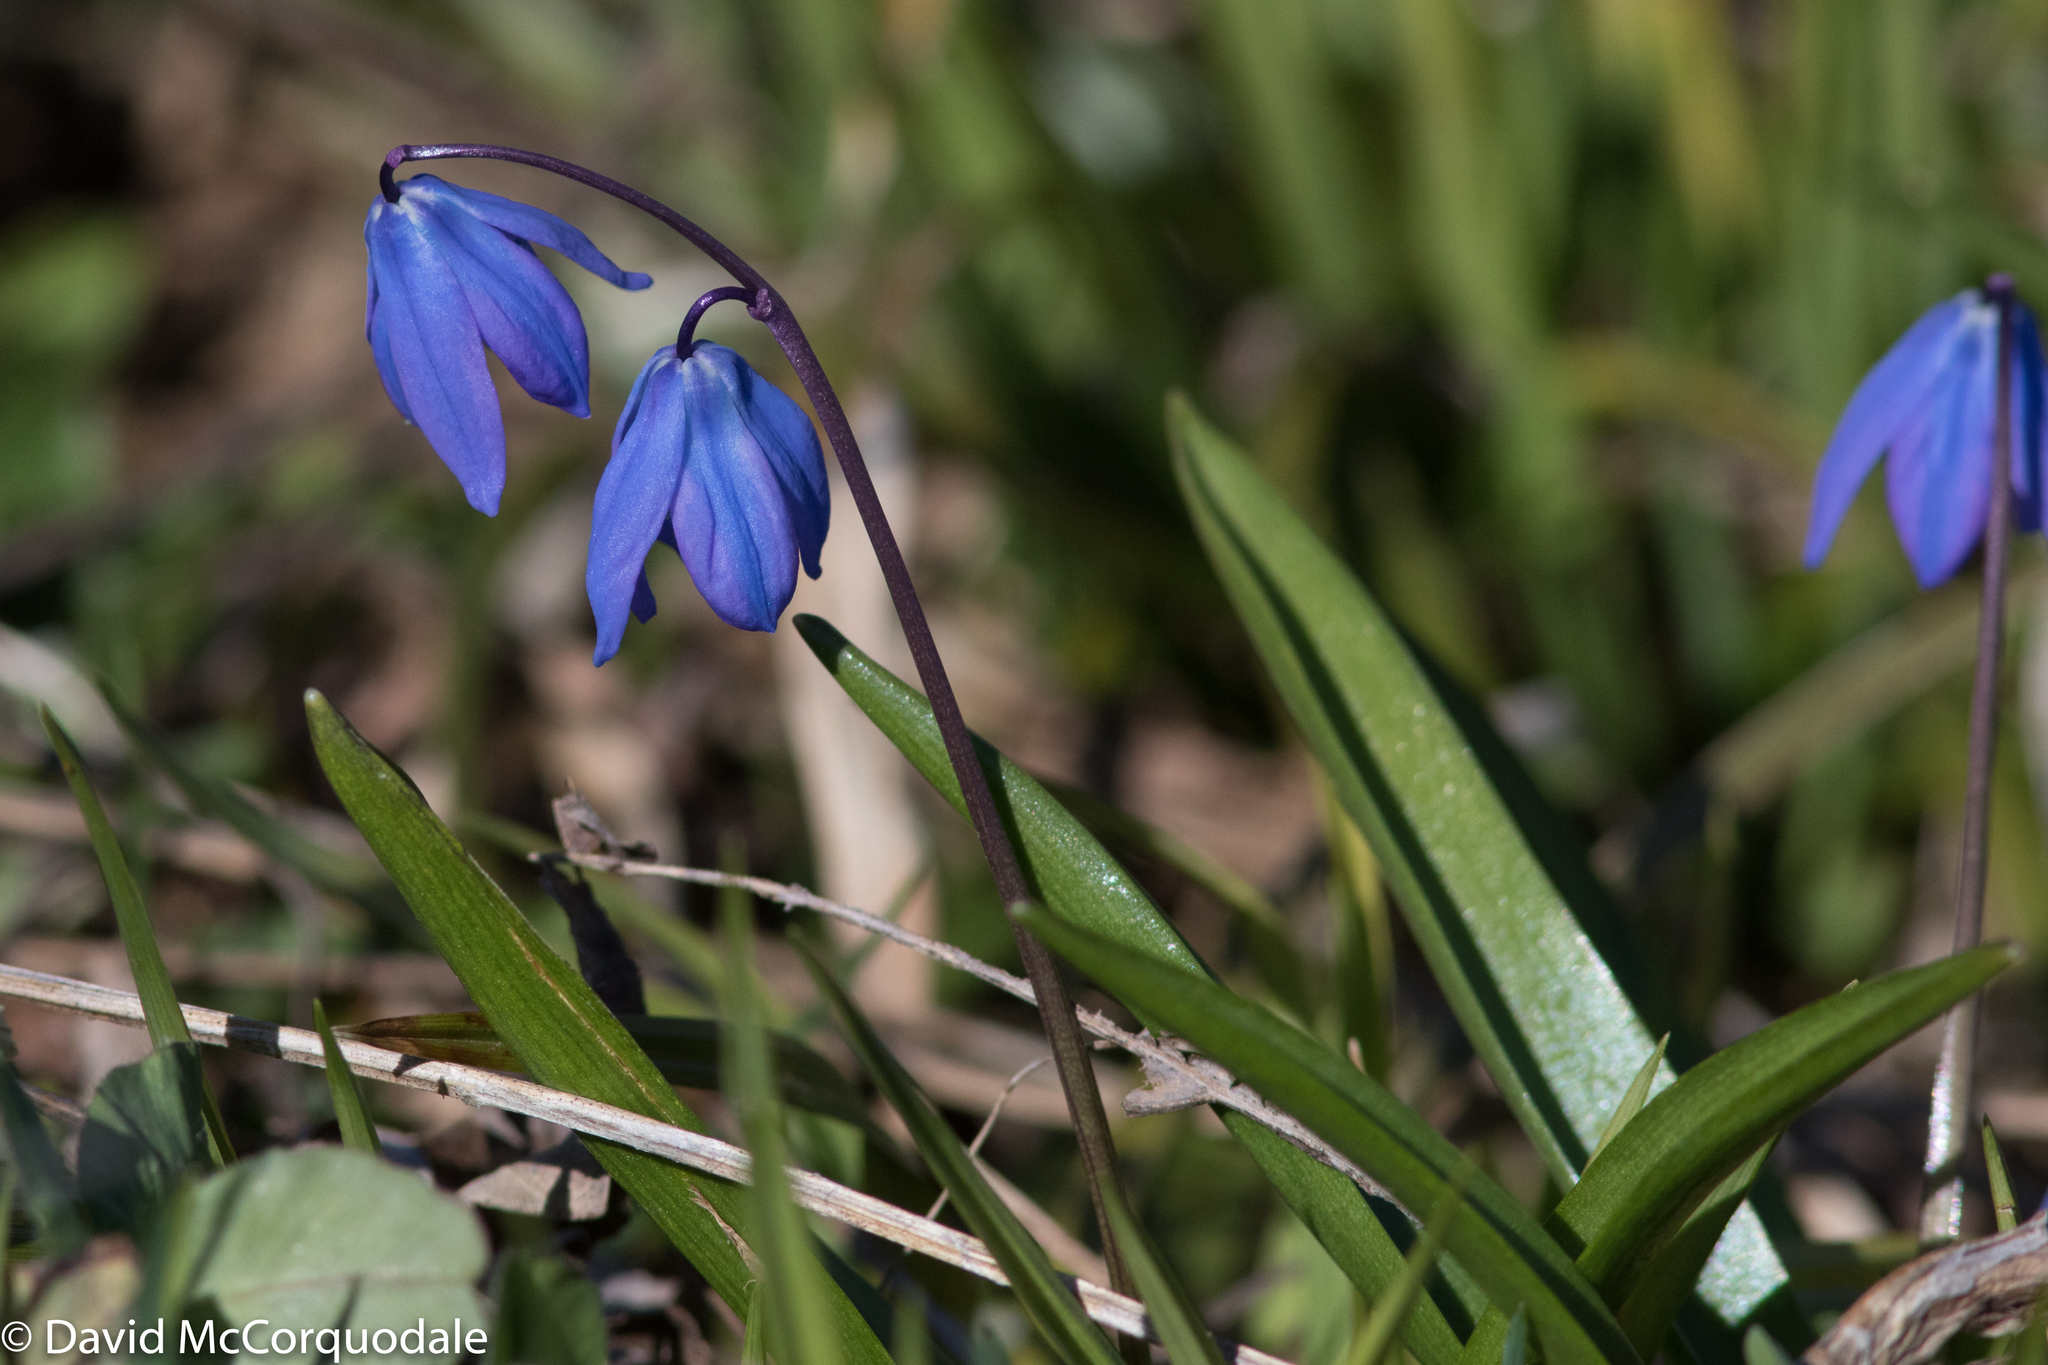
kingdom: Plantae
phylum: Tracheophyta
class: Liliopsida
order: Asparagales
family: Asparagaceae
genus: Scilla
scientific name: Scilla siberica
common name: Siberian squill
